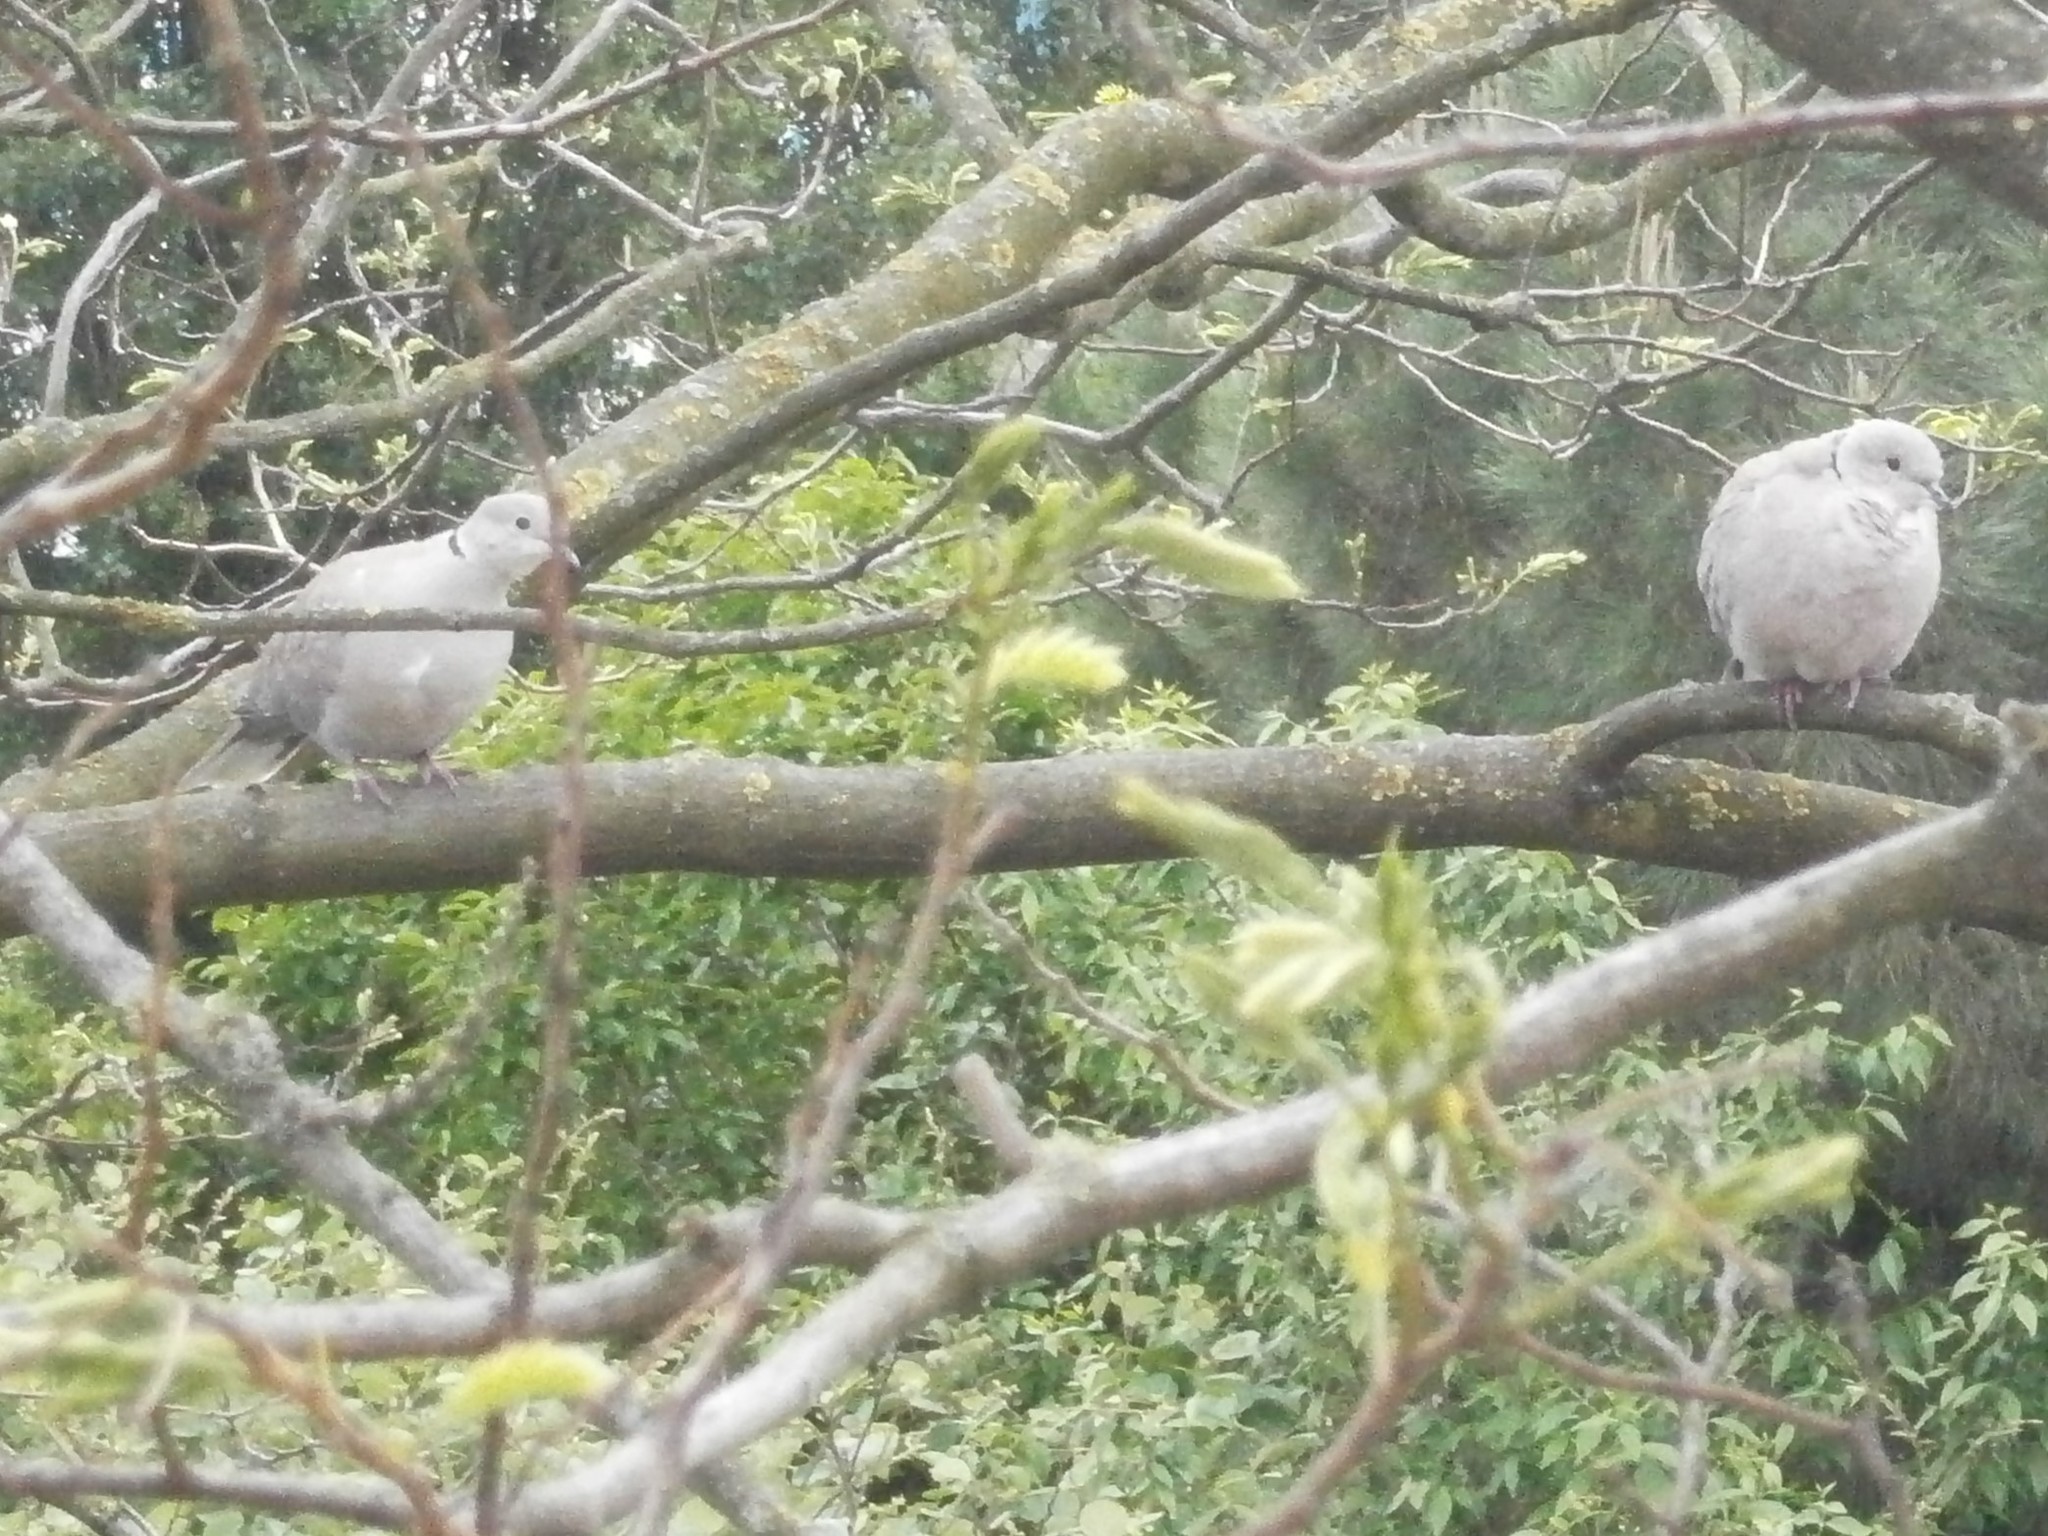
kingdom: Animalia
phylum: Chordata
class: Aves
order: Columbiformes
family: Columbidae
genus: Streptopelia
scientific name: Streptopelia decaocto
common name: Eurasian collared dove
